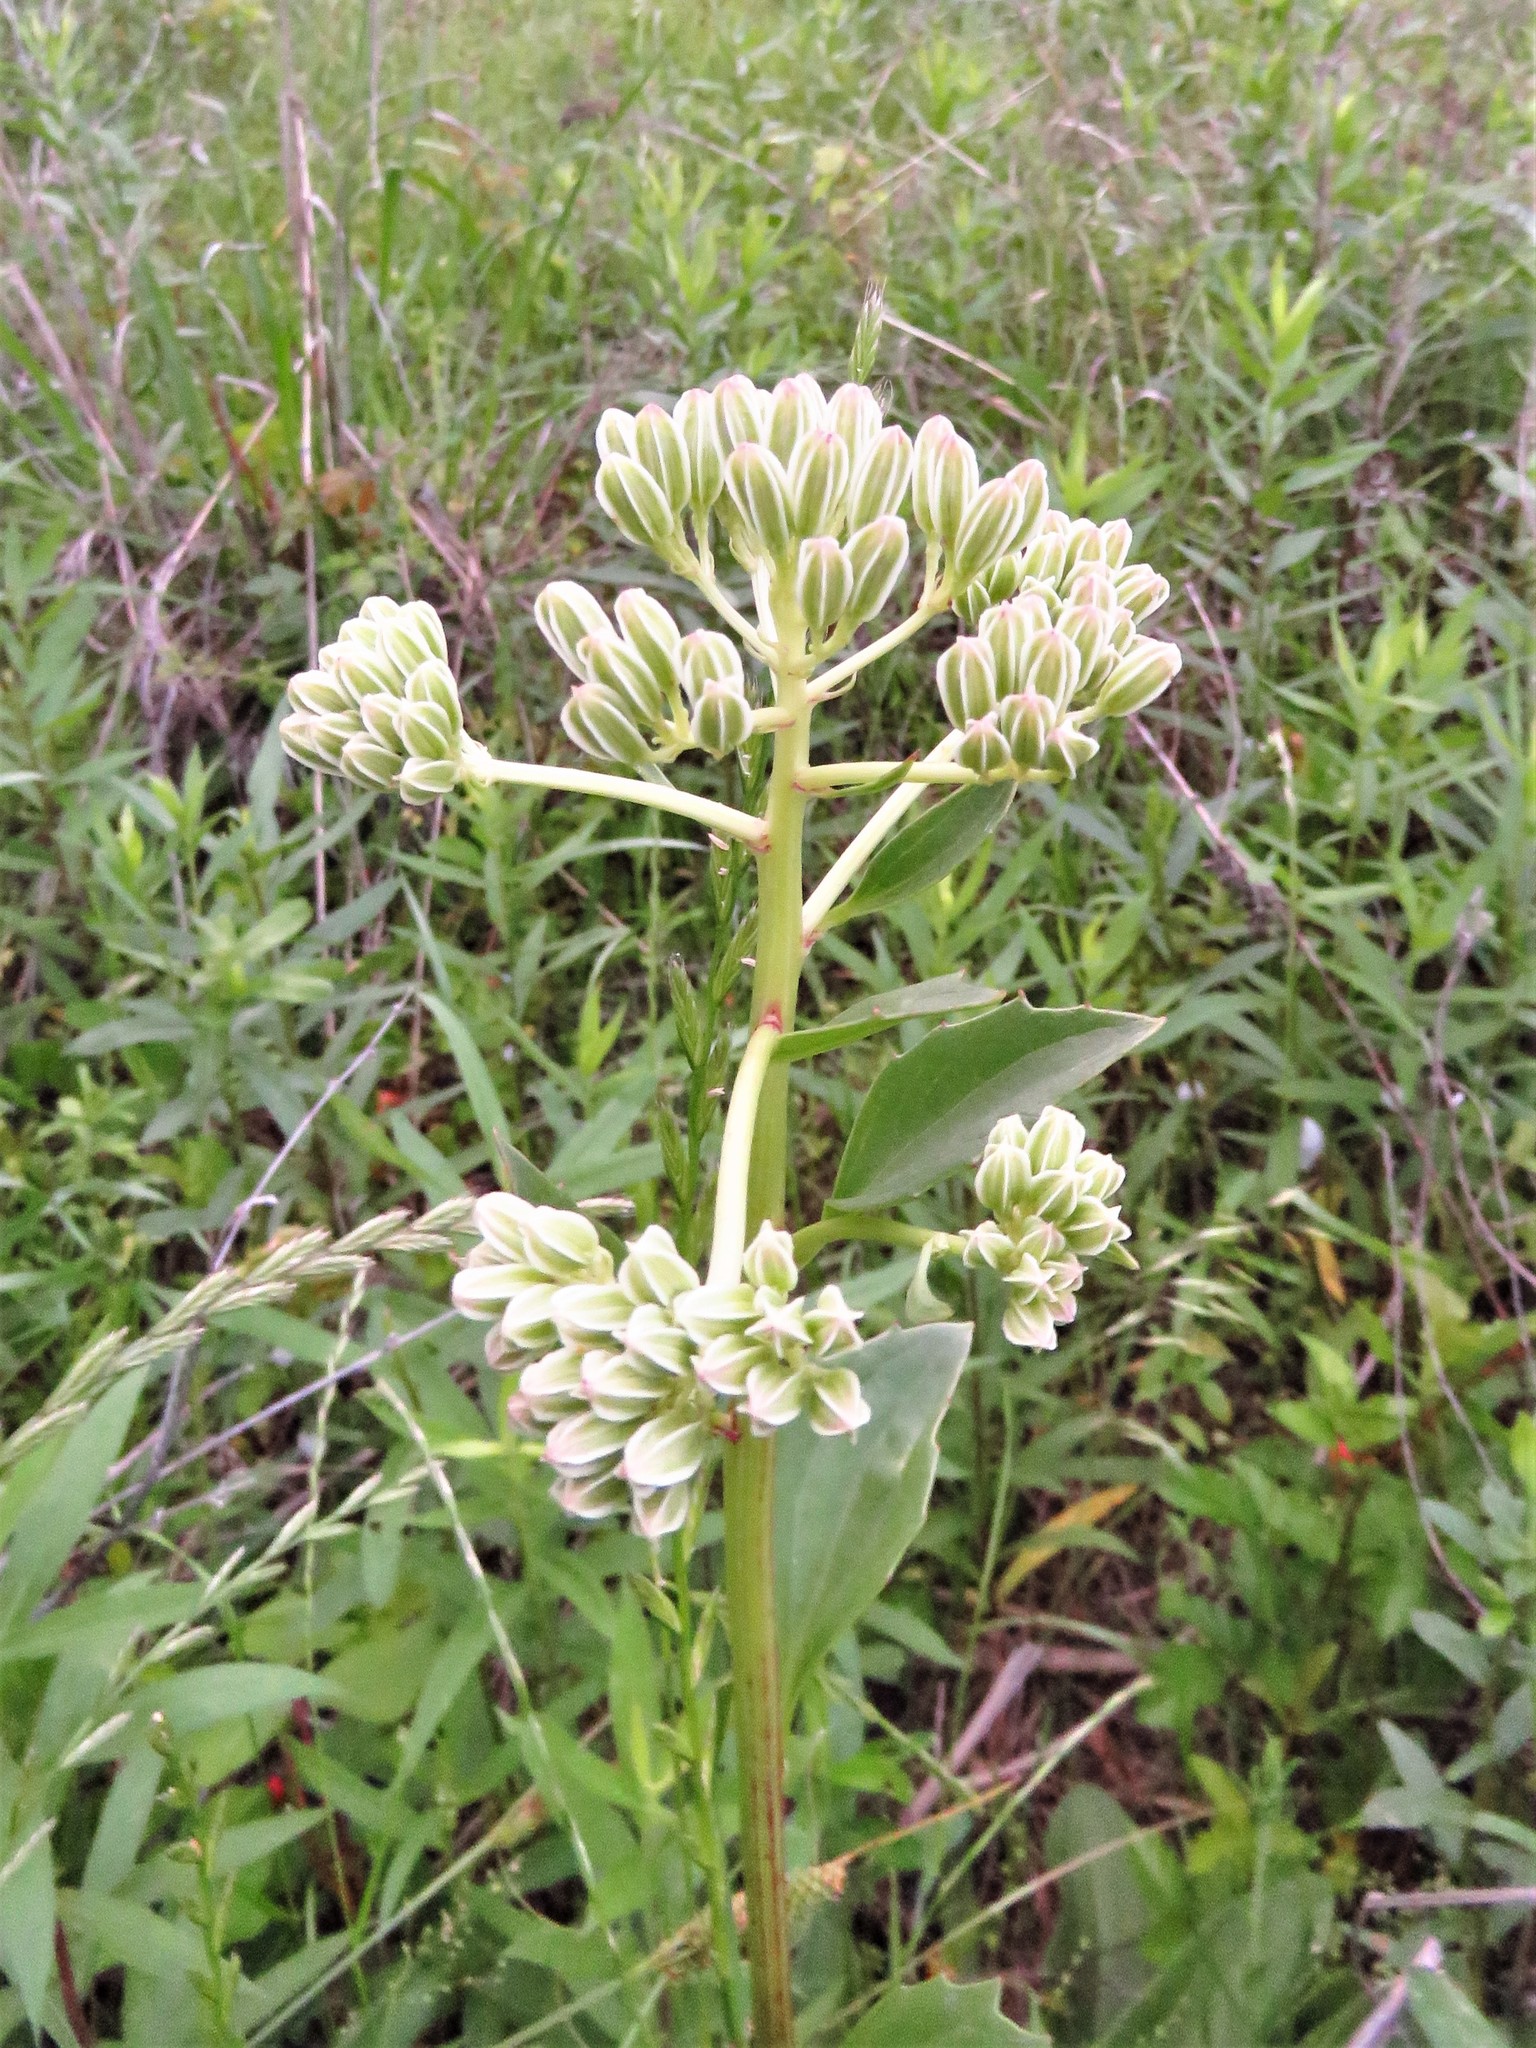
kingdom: Plantae
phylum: Tracheophyta
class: Magnoliopsida
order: Asterales
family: Asteraceae
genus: Arnoglossum
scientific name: Arnoglossum plantagineum
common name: Groove-stemmed indian-plantain
